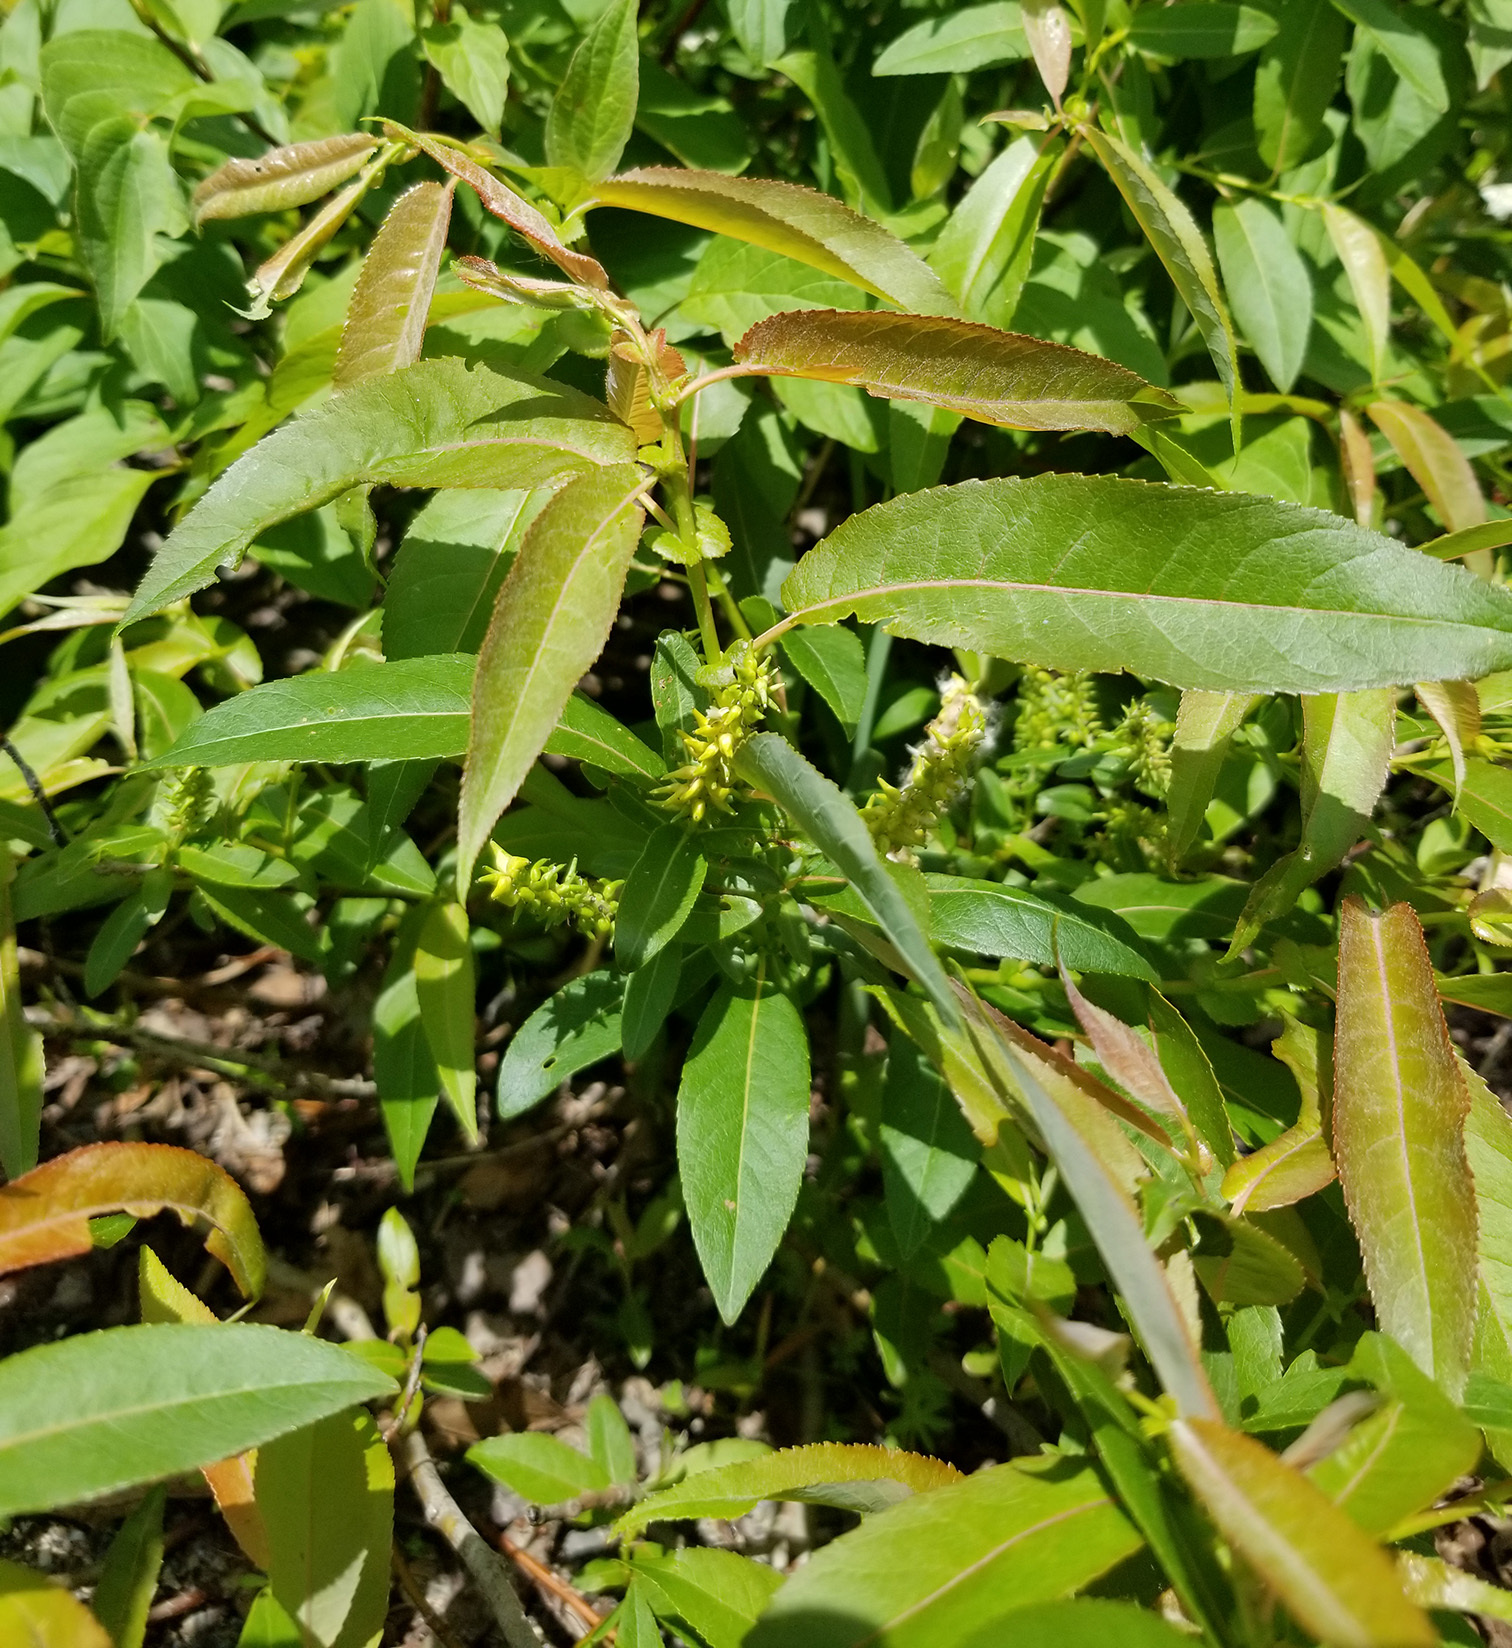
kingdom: Plantae
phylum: Tracheophyta
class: Magnoliopsida
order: Malpighiales
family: Salicaceae
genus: Salix
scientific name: Salix eriocephala
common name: Heart-leaved willow
